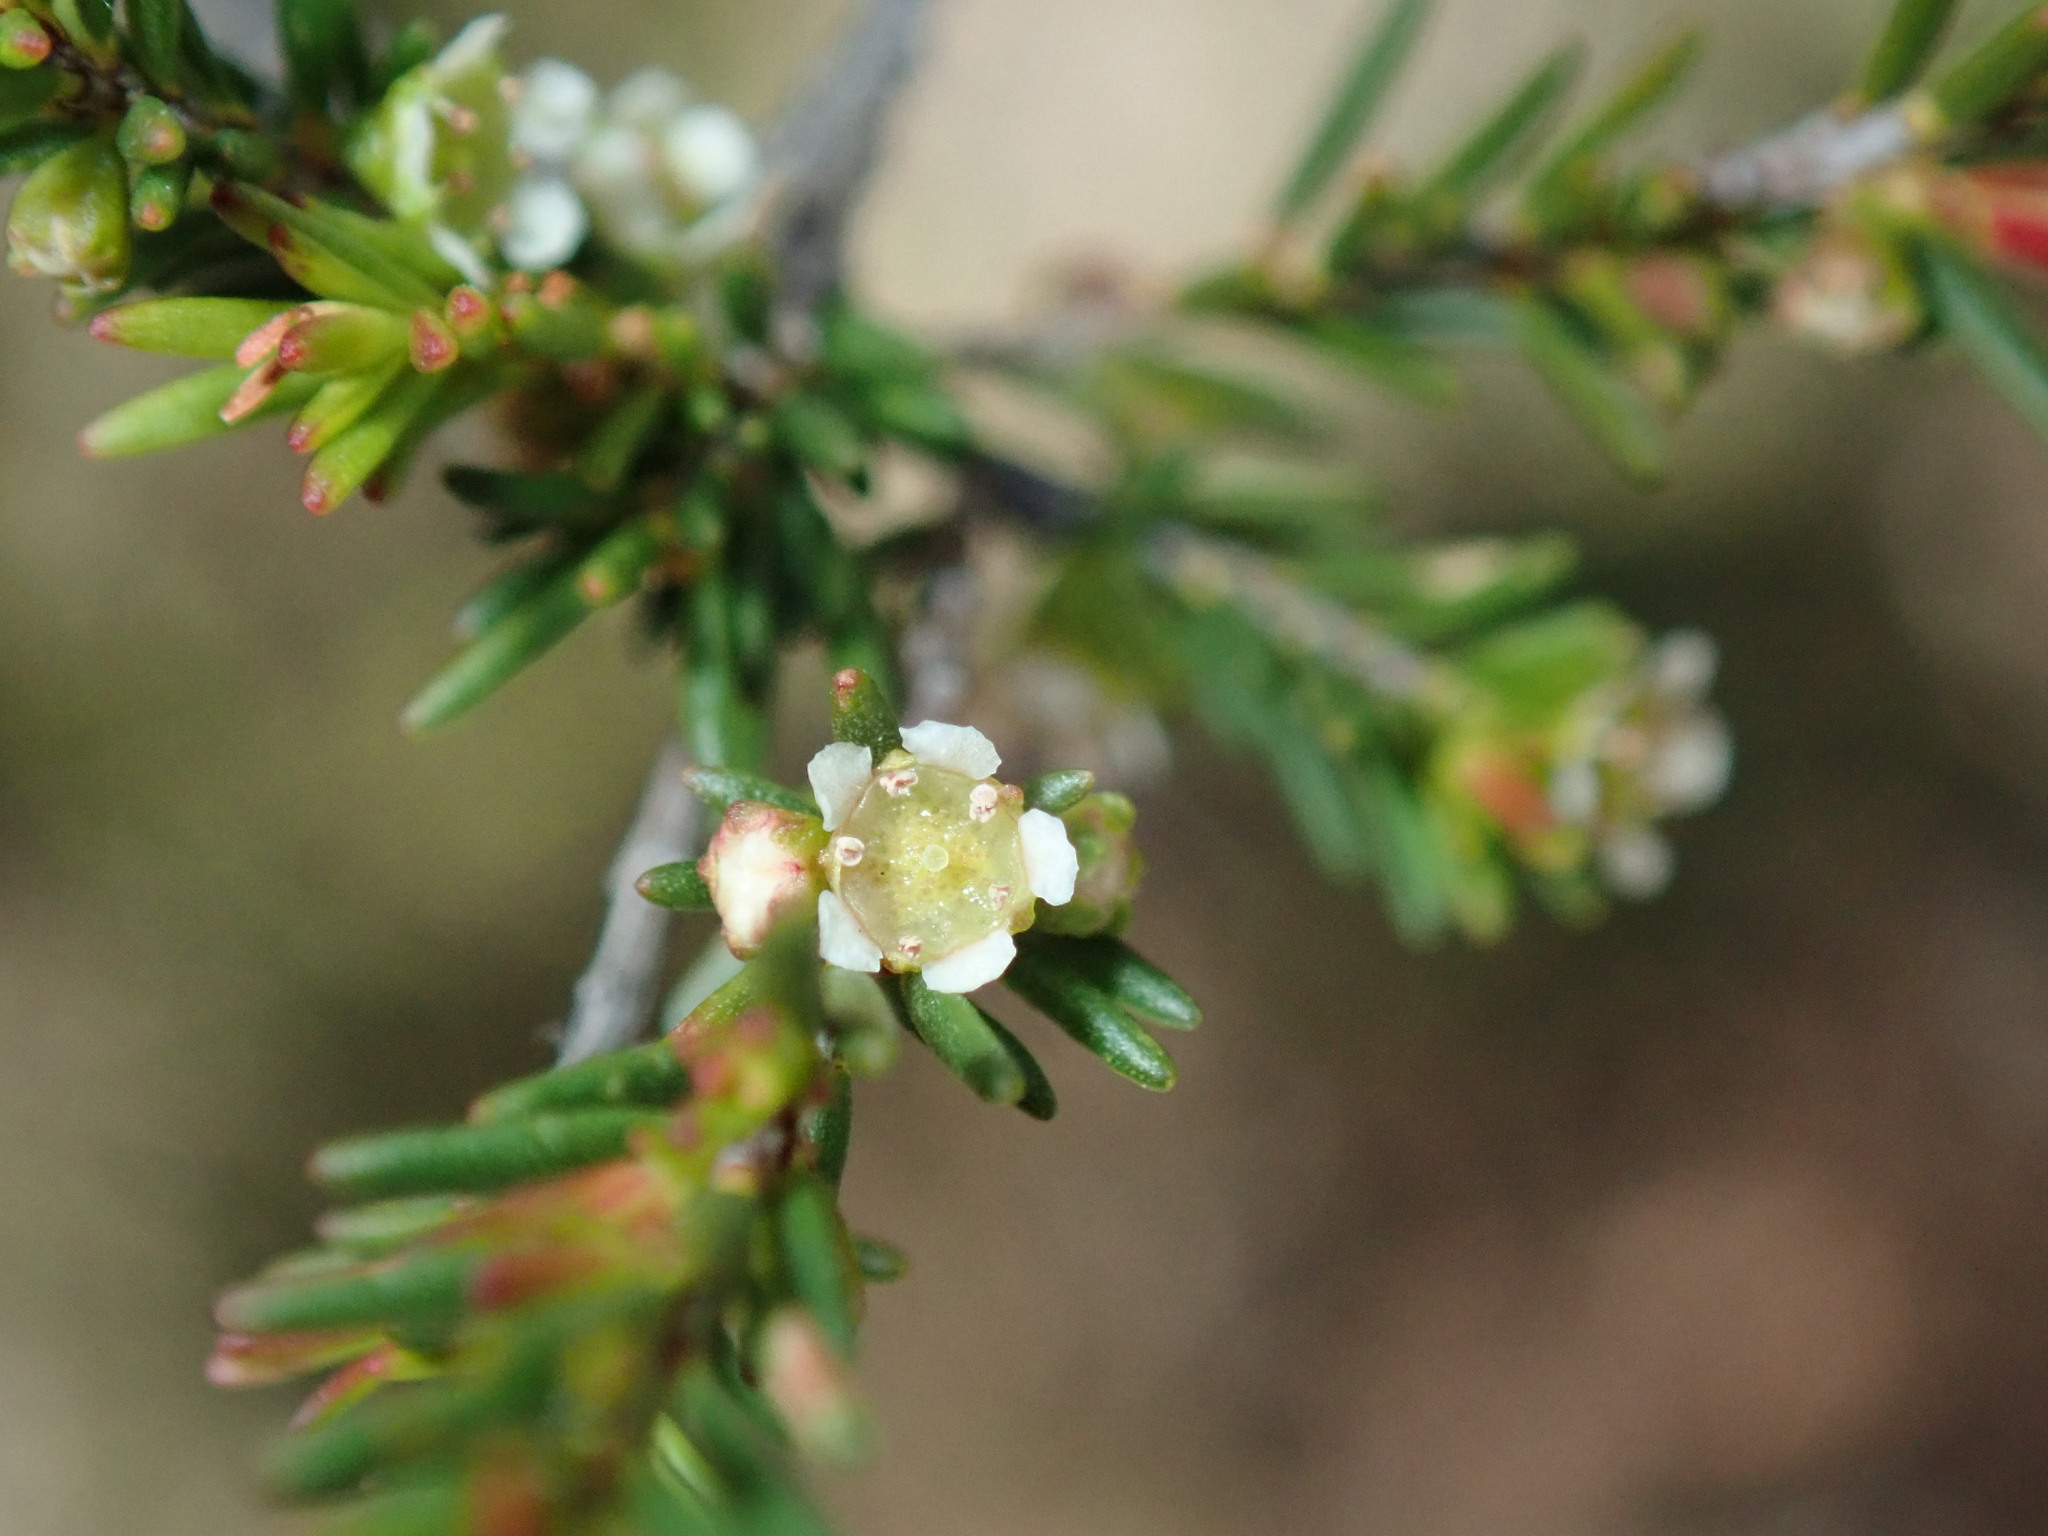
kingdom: Plantae
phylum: Tracheophyta
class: Magnoliopsida
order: Myrtales
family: Myrtaceae
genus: Ochrosperma
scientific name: Ochrosperma lineare
